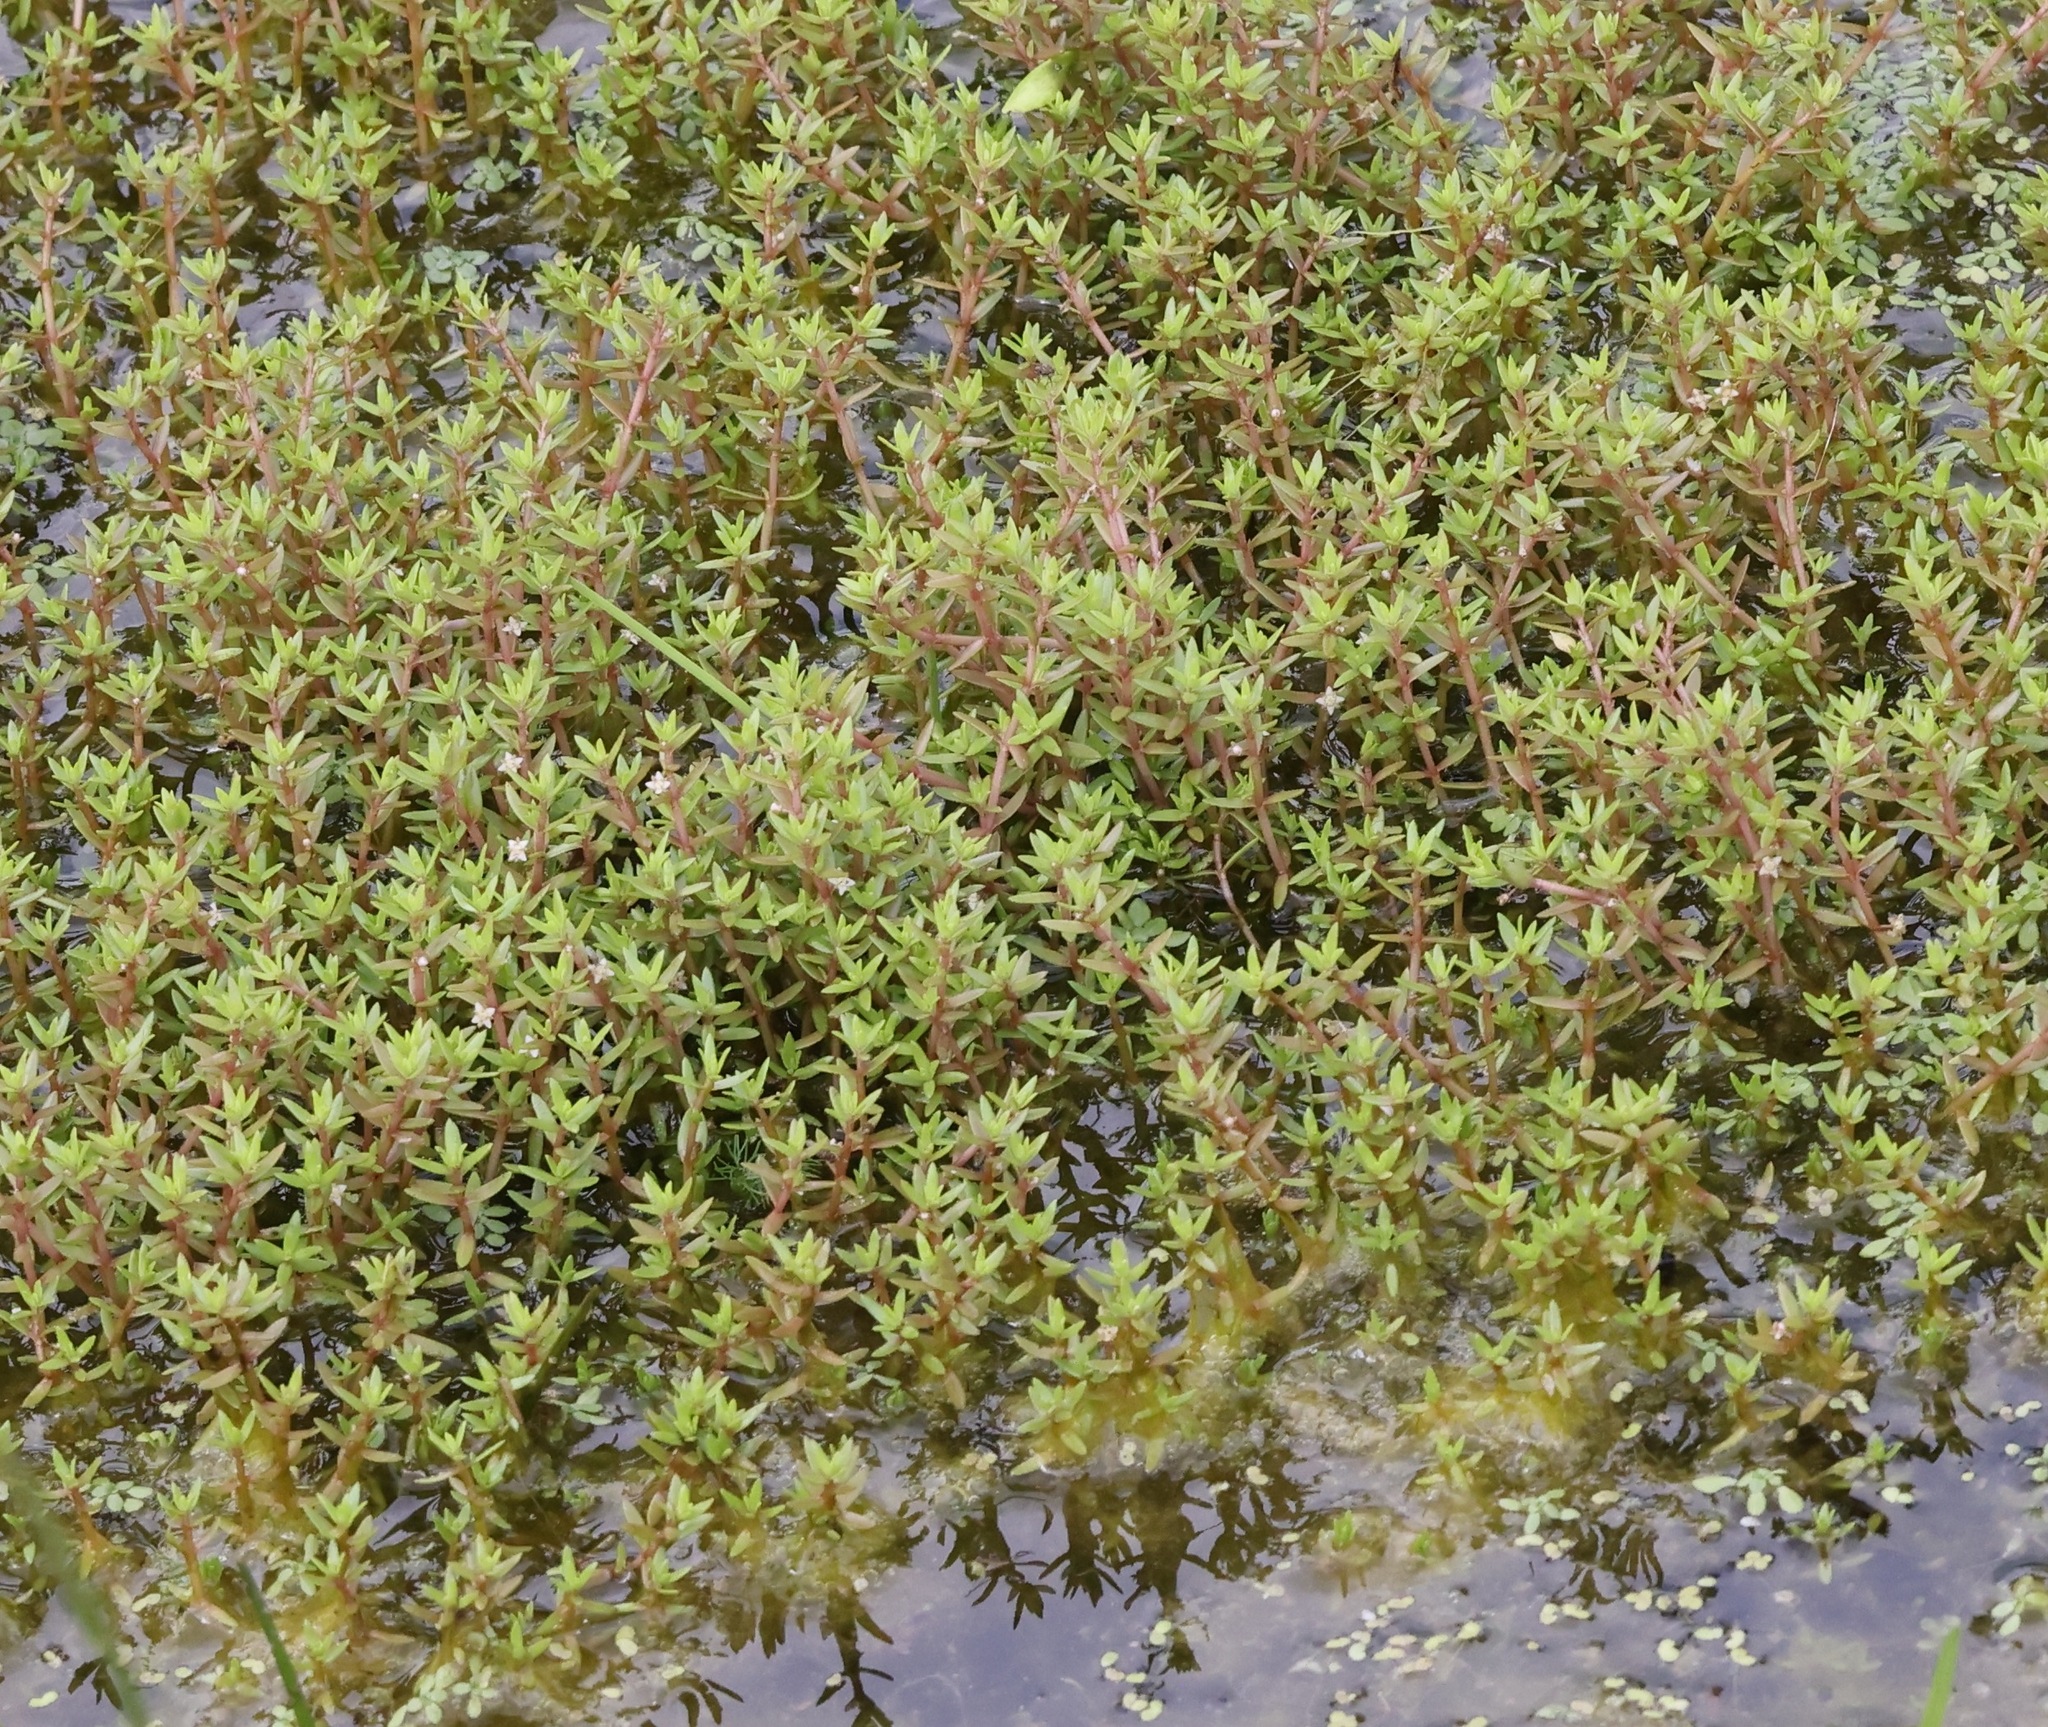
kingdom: Plantae
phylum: Tracheophyta
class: Magnoliopsida
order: Saxifragales
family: Crassulaceae
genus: Crassula
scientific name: Crassula helmsii
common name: New zealand pigmyweed
